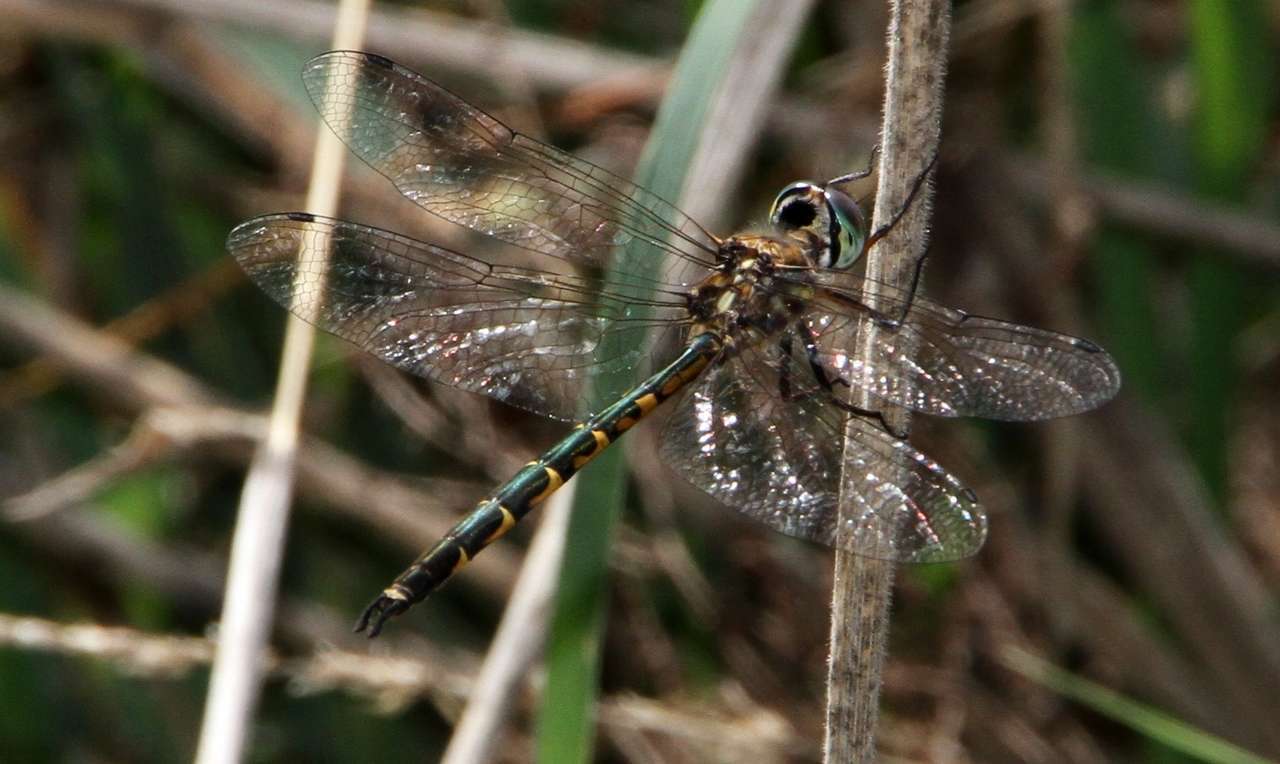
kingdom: Animalia
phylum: Arthropoda
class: Insecta
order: Odonata
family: Corduliidae
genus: Hemicordulia
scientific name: Hemicordulia australiae
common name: Sentry dragonfly
